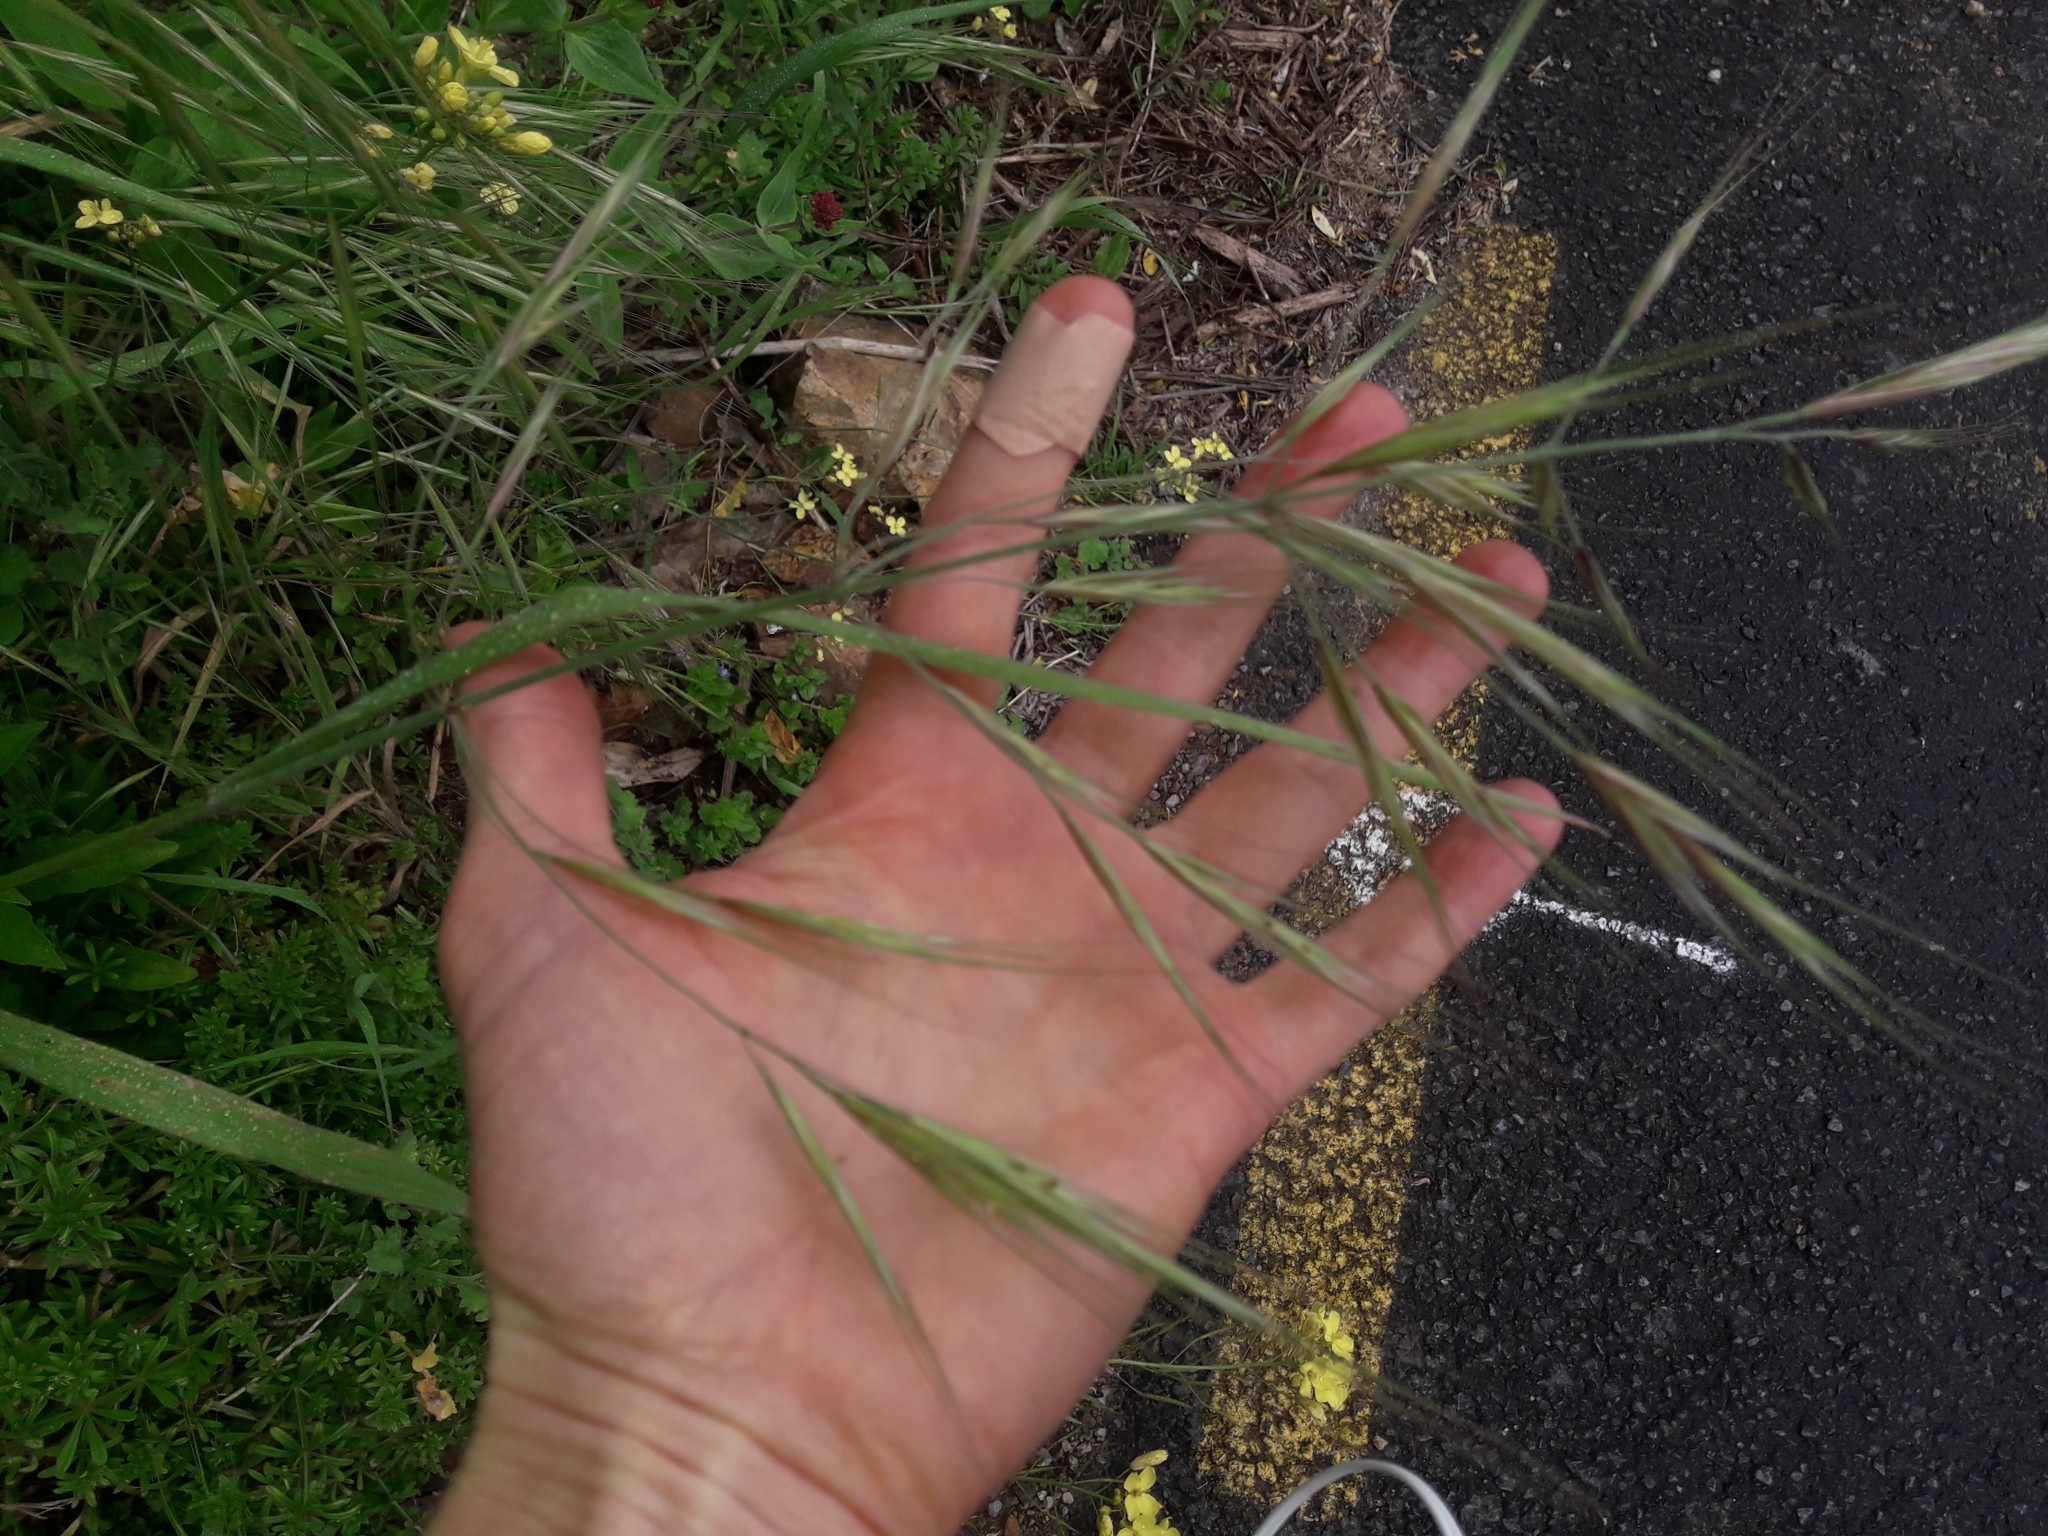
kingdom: Plantae
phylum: Tracheophyta
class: Liliopsida
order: Poales
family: Poaceae
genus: Bromus
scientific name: Bromus diandrus
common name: Ripgut brome
